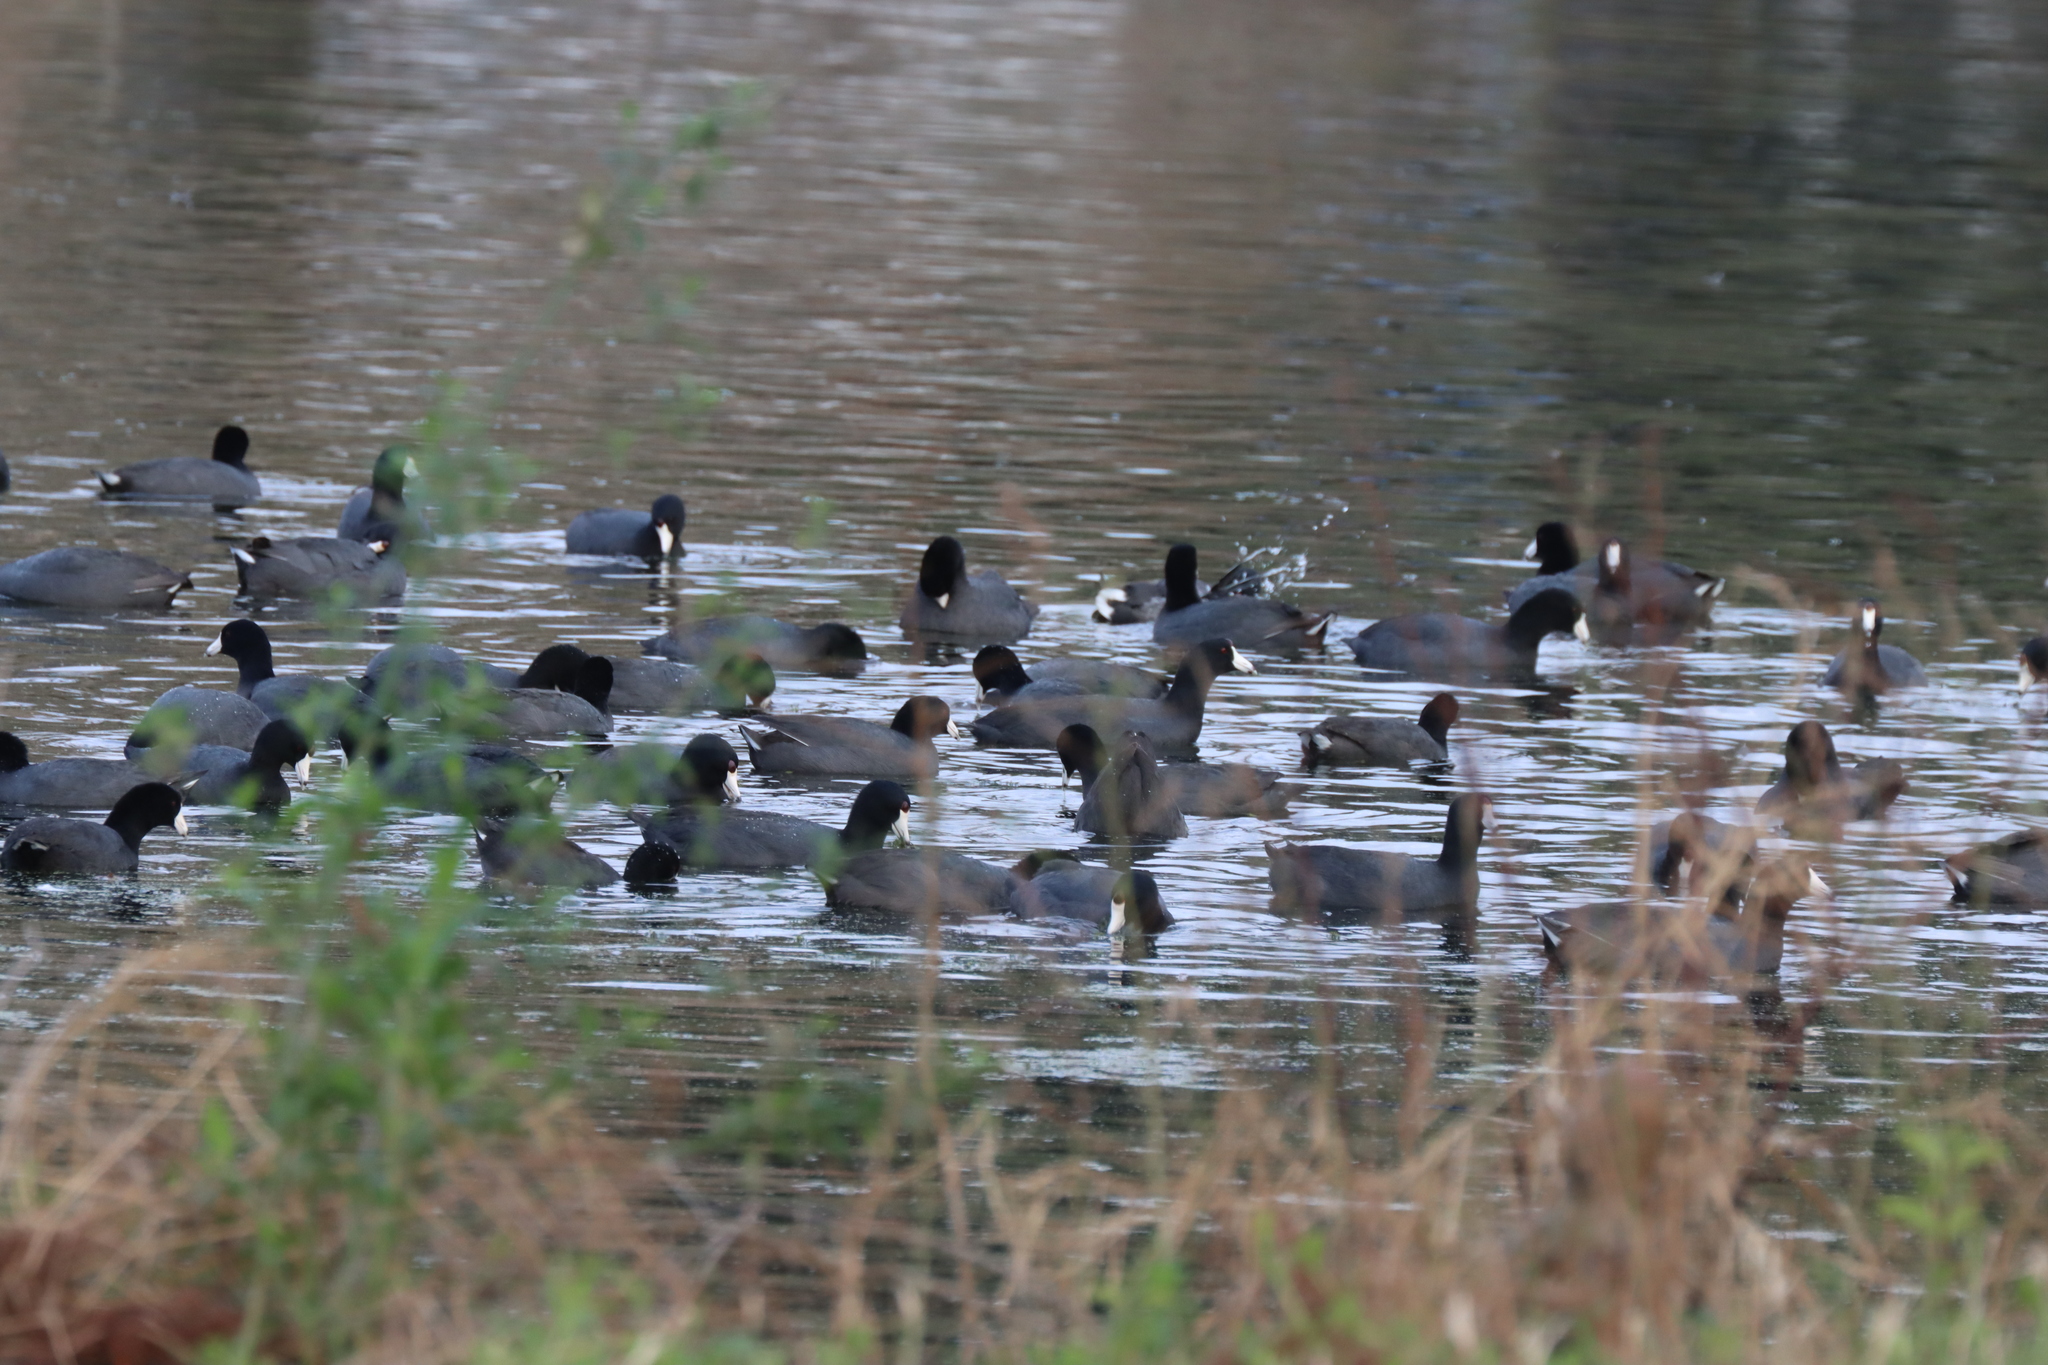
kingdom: Animalia
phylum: Chordata
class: Aves
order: Gruiformes
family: Rallidae
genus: Fulica
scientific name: Fulica americana
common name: American coot
